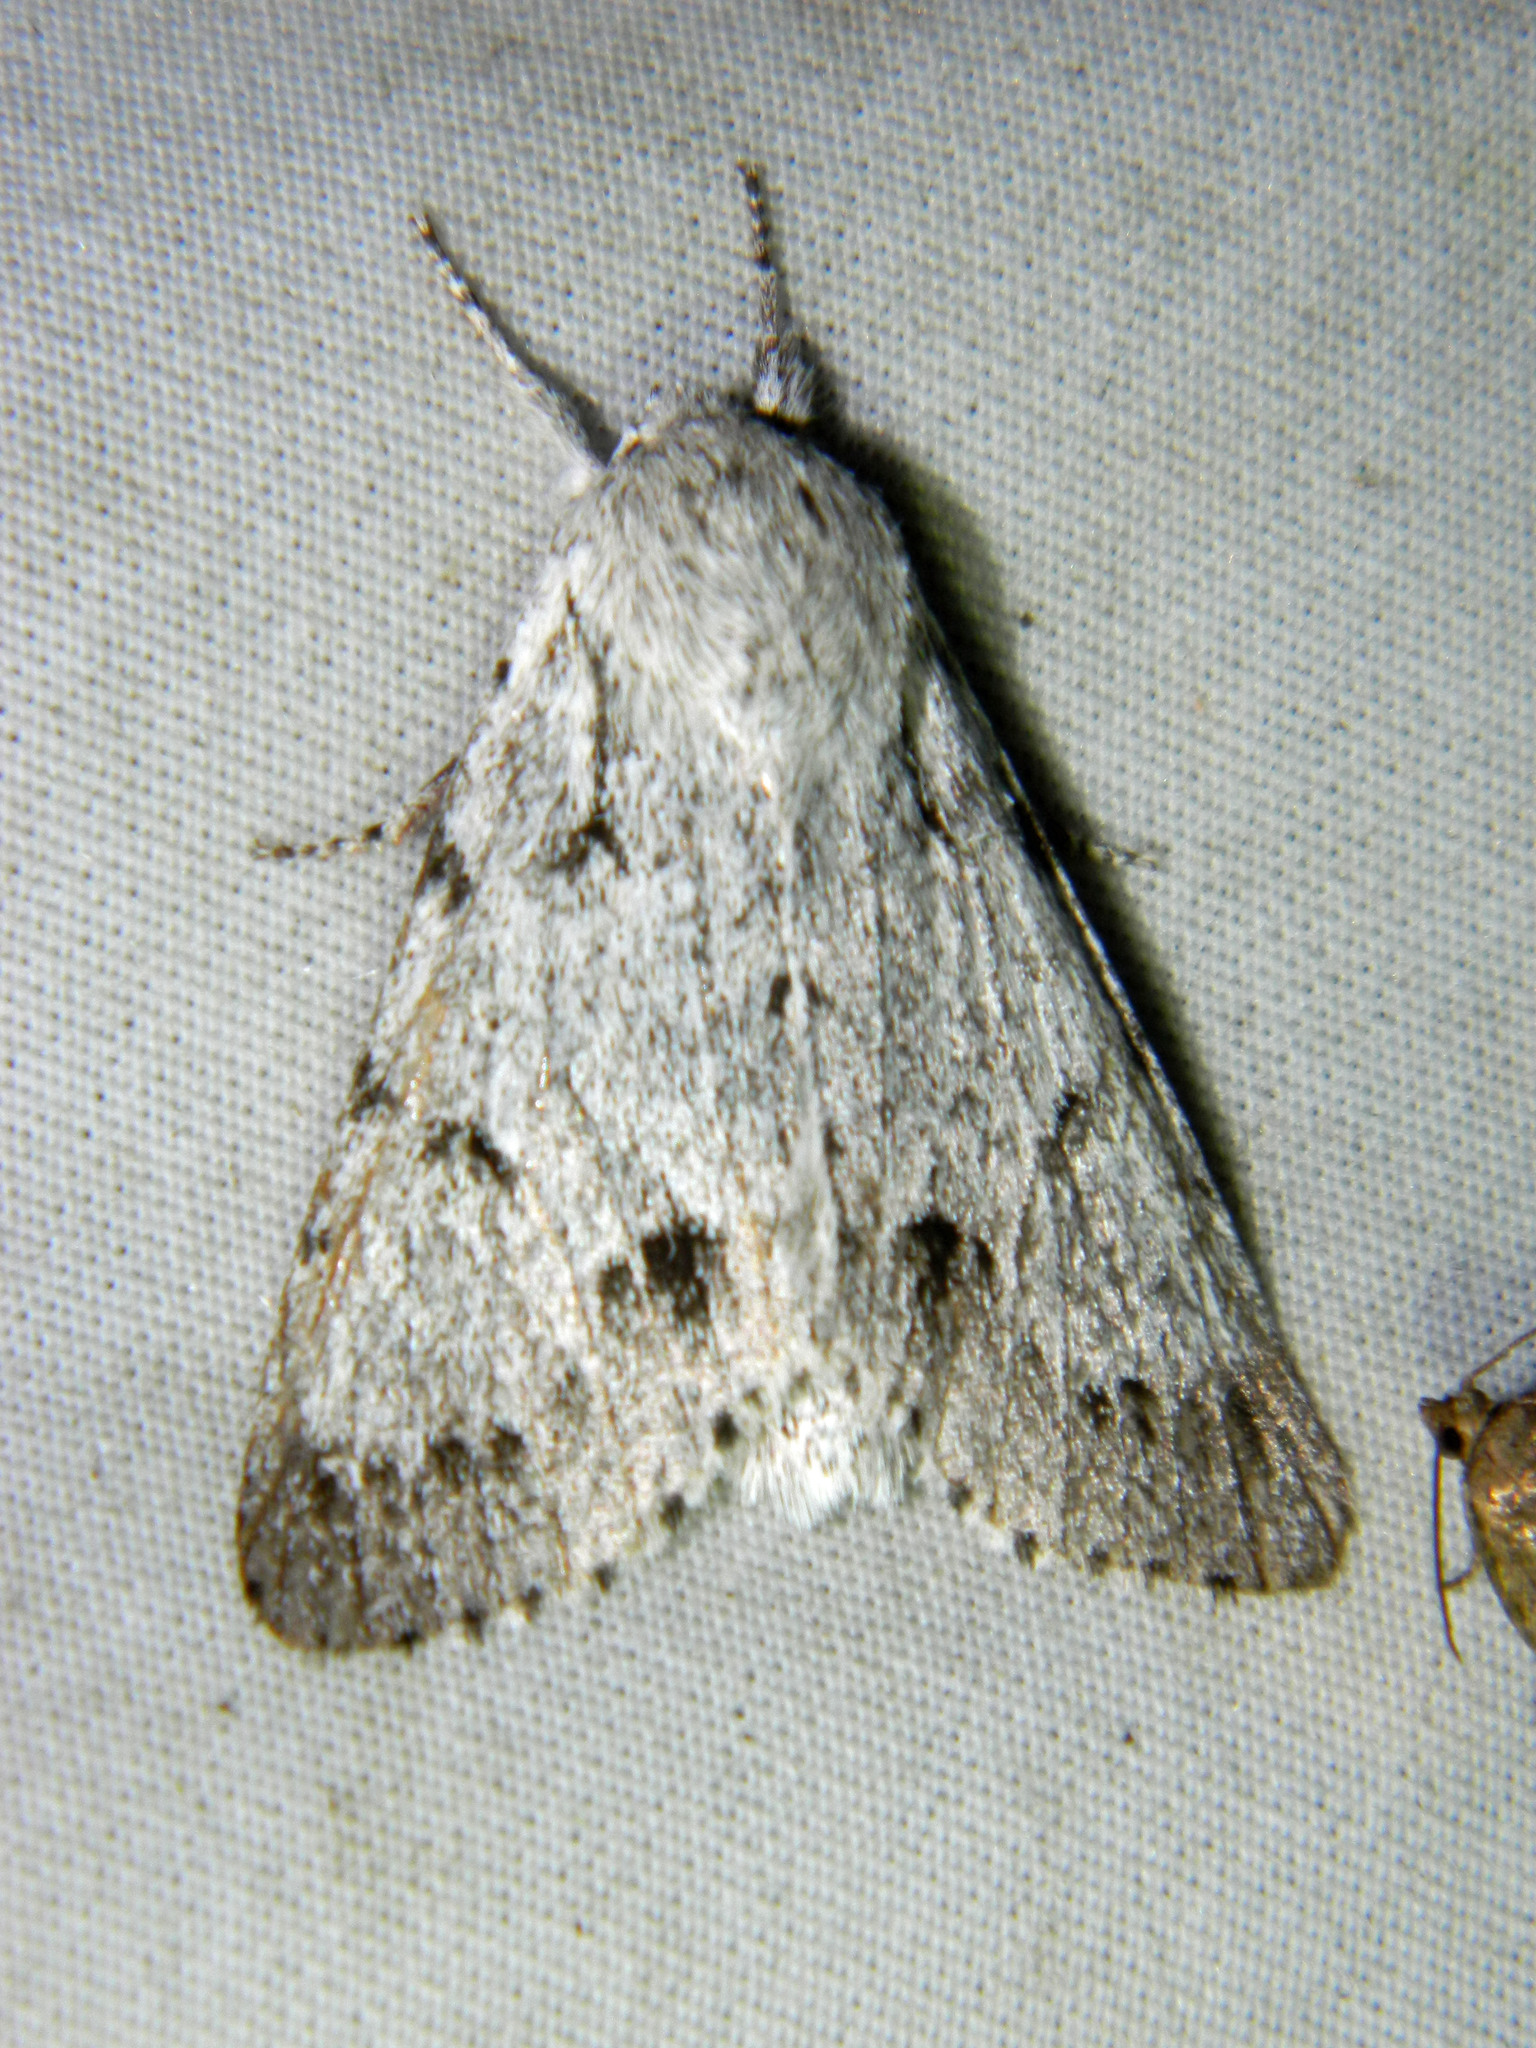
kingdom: Animalia
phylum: Arthropoda
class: Insecta
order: Lepidoptera
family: Noctuidae
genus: Acronicta
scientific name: Acronicta lepusculina
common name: Cottonwood dagger
